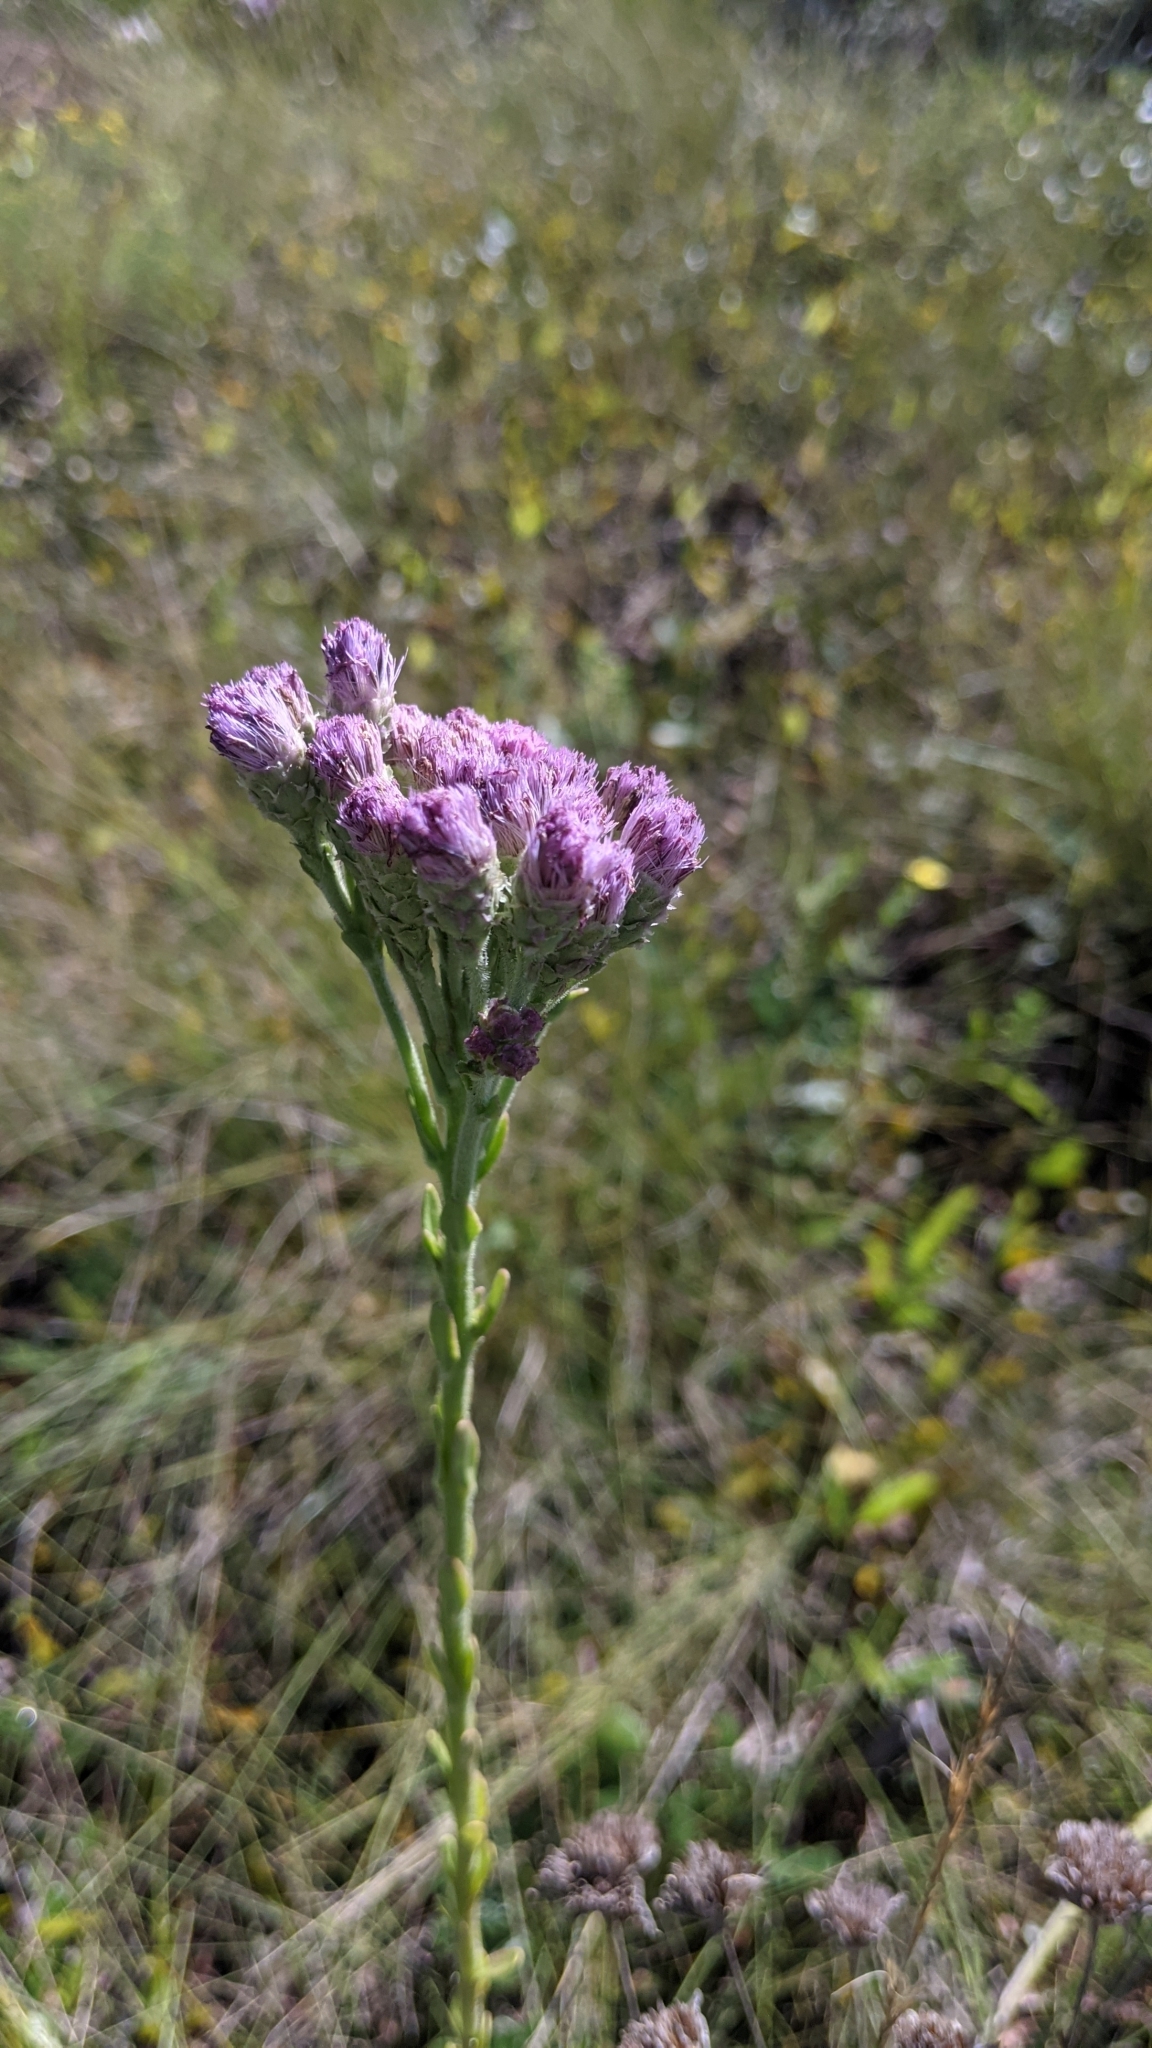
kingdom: Plantae
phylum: Tracheophyta
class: Magnoliopsida
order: Asterales
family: Asteraceae
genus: Carphephorus
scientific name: Carphephorus corymbosus
